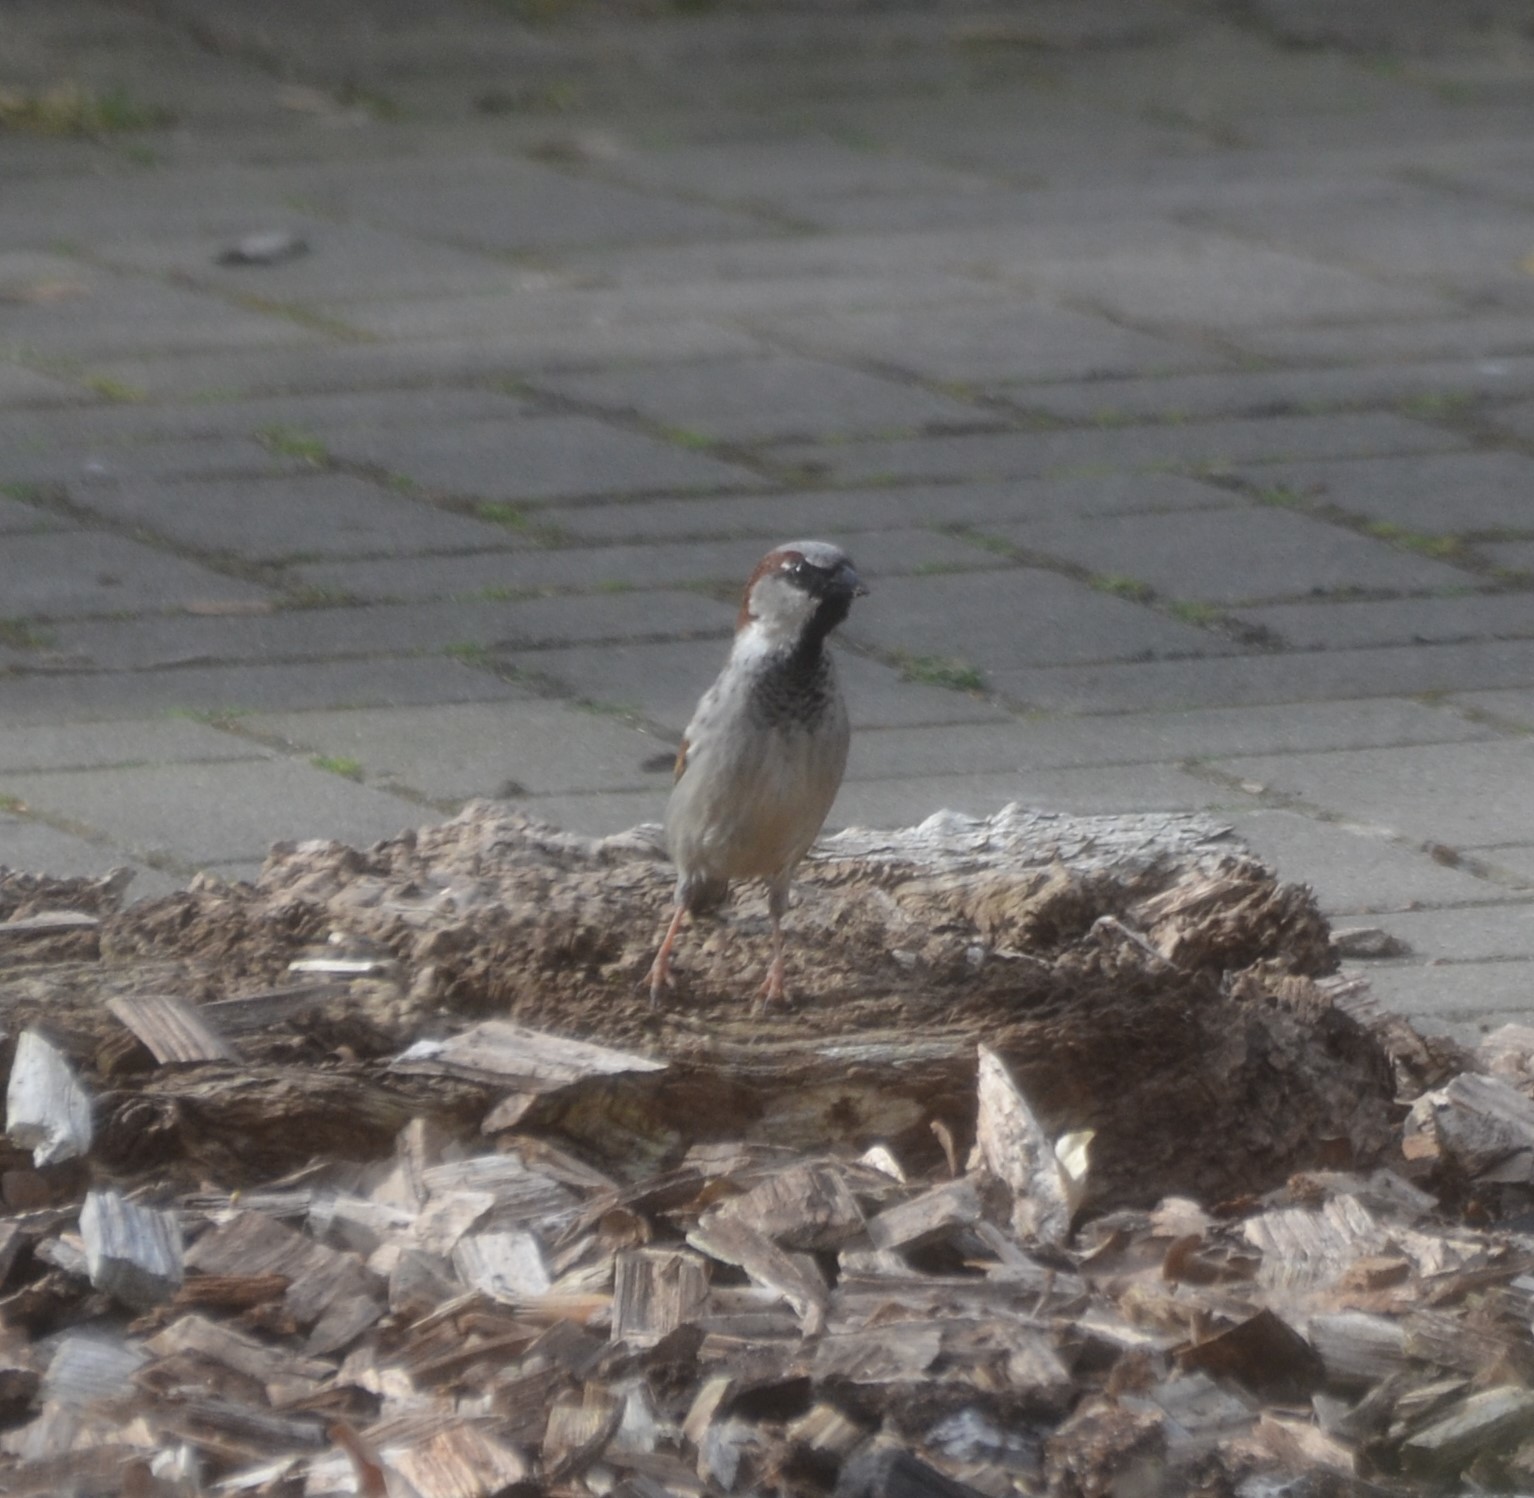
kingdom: Animalia
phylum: Chordata
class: Aves
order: Passeriformes
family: Passeridae
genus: Passer
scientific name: Passer domesticus
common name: House sparrow
